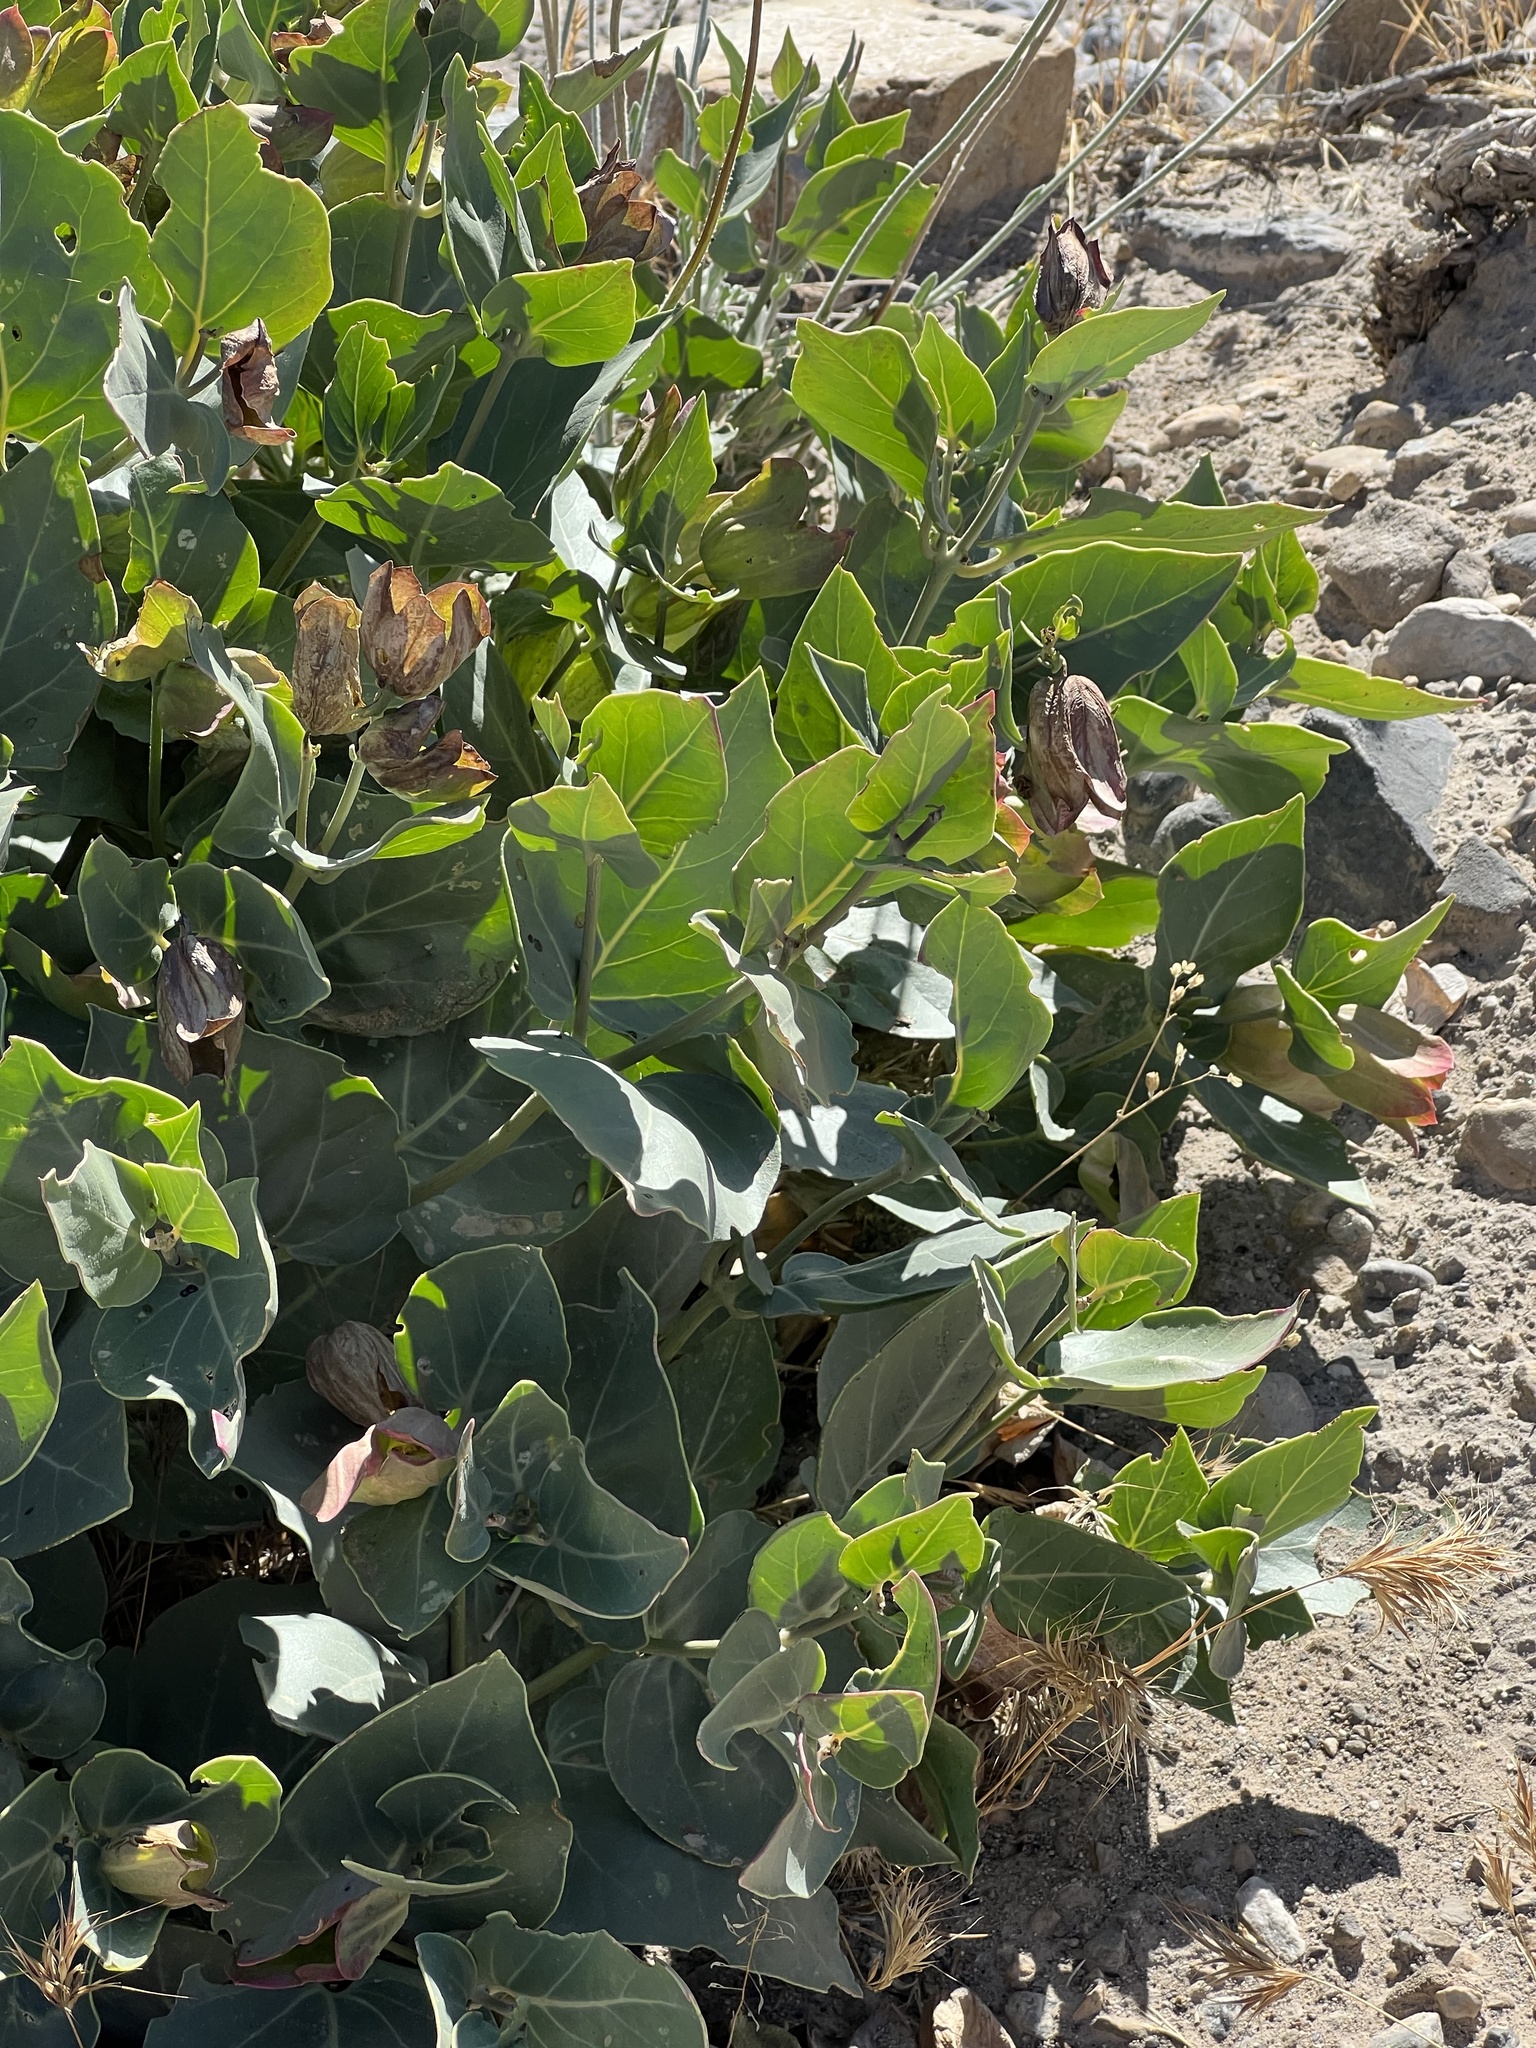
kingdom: Plantae
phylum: Tracheophyta
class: Magnoliopsida
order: Caryophyllales
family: Nyctaginaceae
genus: Mirabilis
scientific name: Mirabilis multiflora
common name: Froebel's four-o'clock
